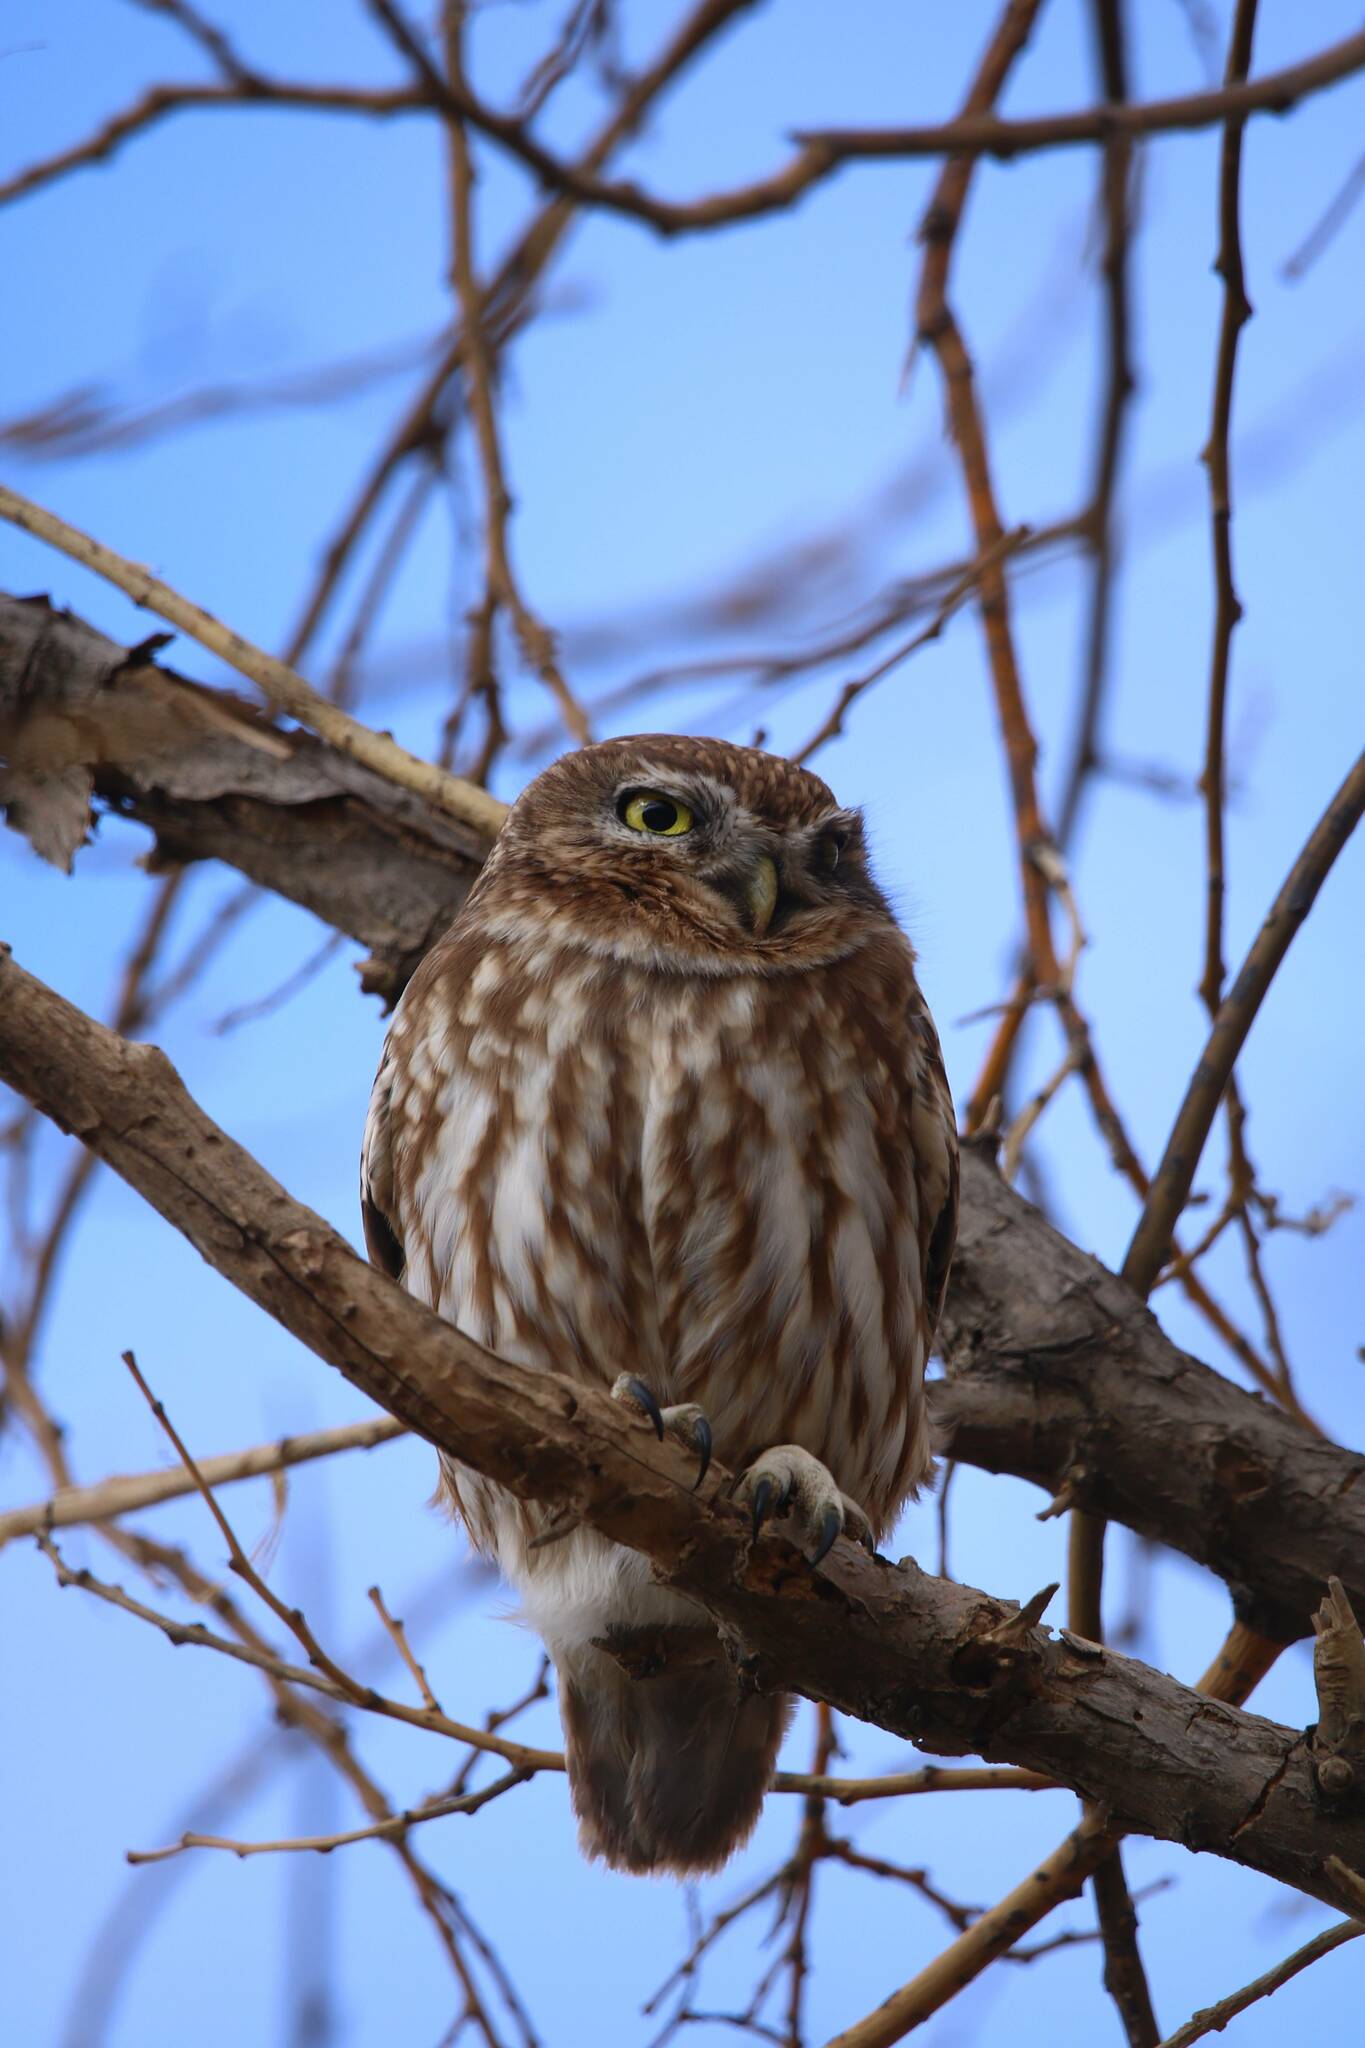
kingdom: Animalia
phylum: Chordata
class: Aves
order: Strigiformes
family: Strigidae
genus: Athene
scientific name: Athene noctua
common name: Little owl
